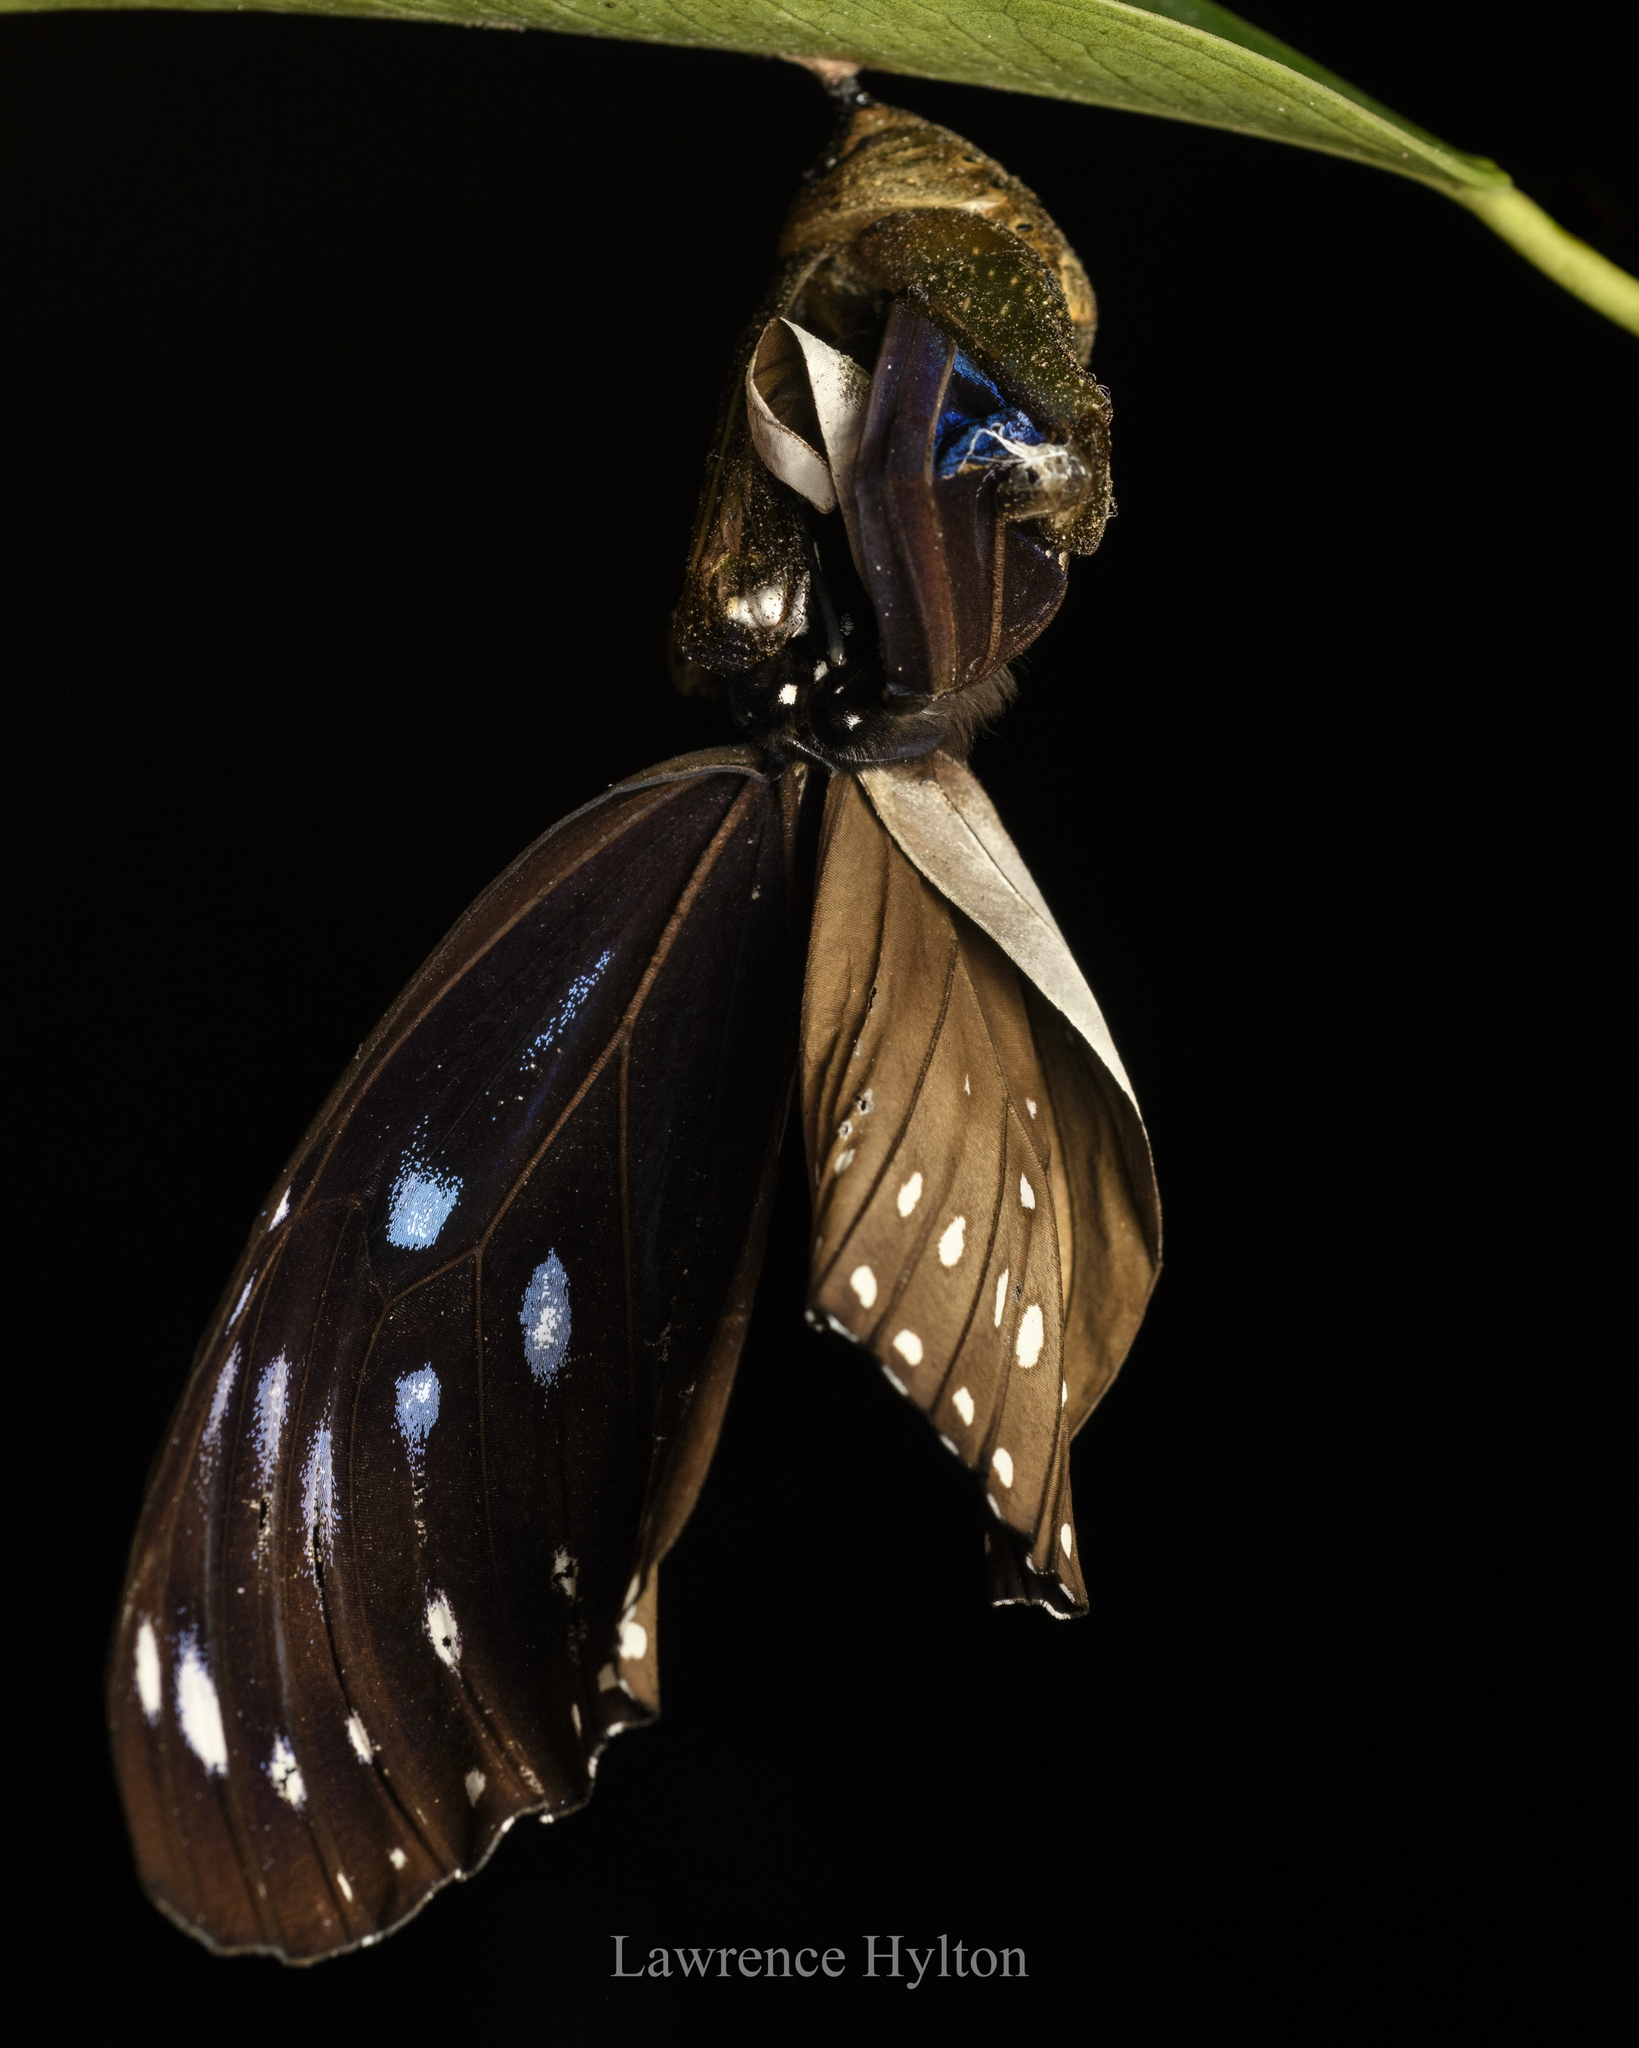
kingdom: Animalia
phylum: Arthropoda
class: Insecta
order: Lepidoptera
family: Nymphalidae
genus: Euploea
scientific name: Euploea midamus
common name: Blue-spotted crow butterfly
